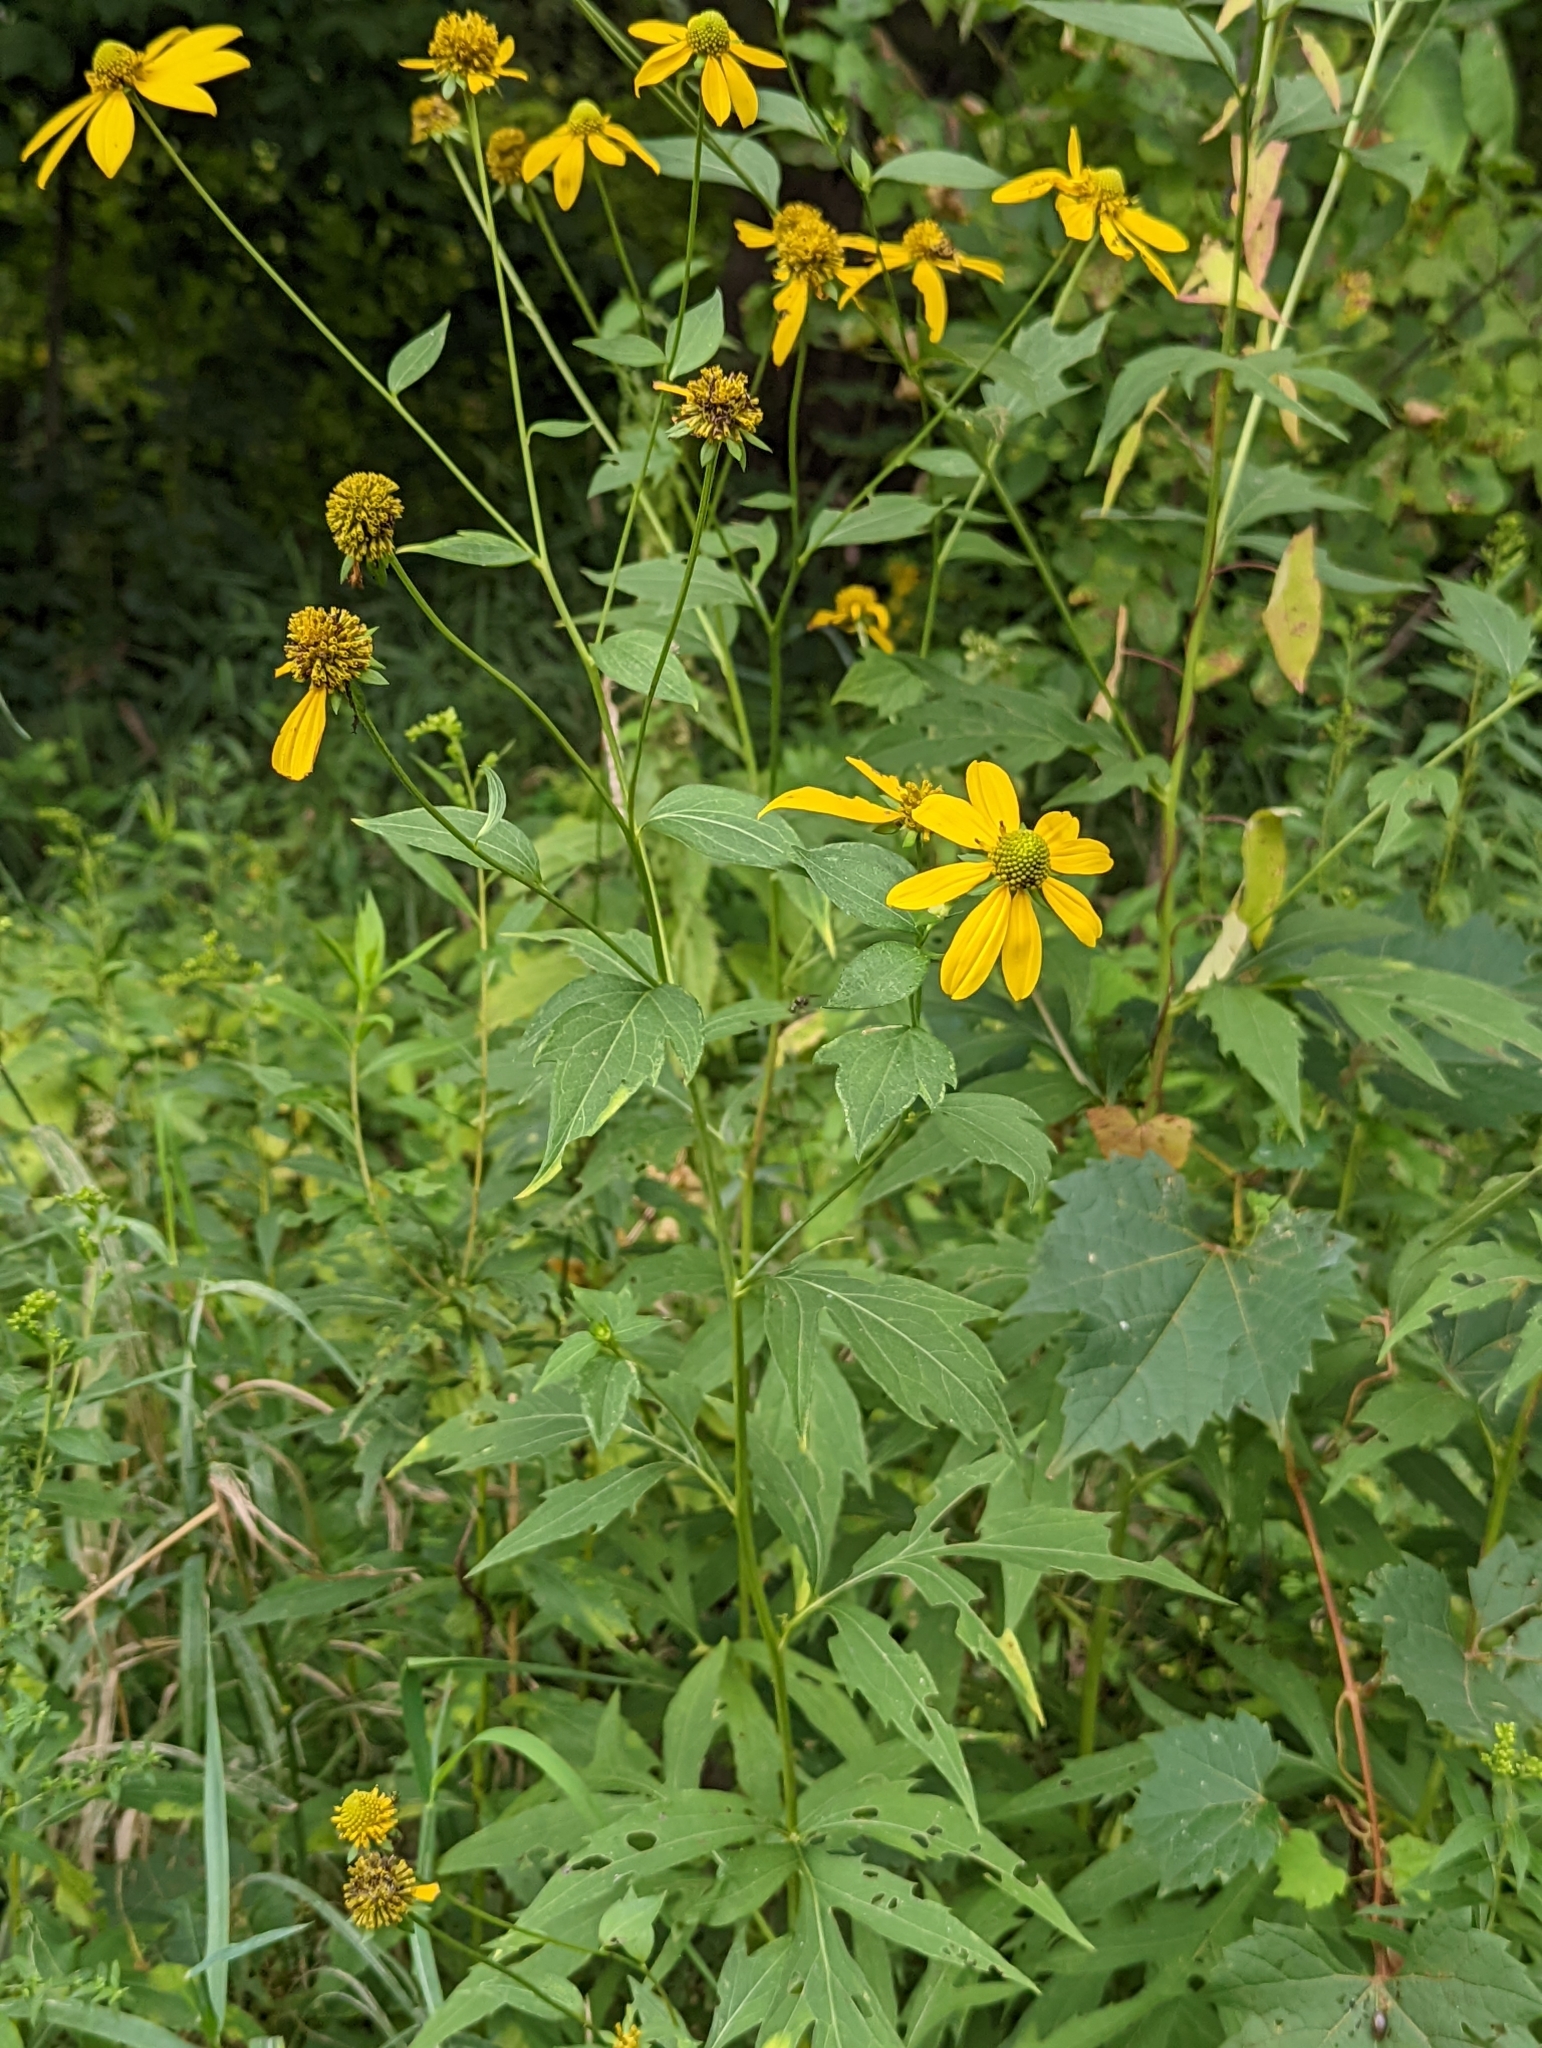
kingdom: Plantae
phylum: Tracheophyta
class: Magnoliopsida
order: Asterales
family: Asteraceae
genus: Rudbeckia
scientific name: Rudbeckia laciniata
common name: Coneflower
